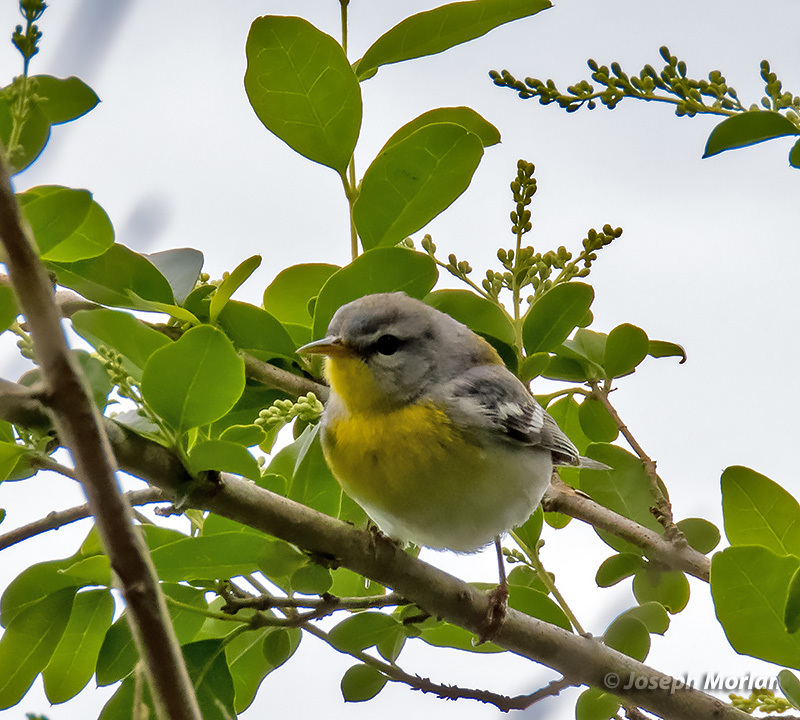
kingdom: Animalia
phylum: Chordata
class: Aves
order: Passeriformes
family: Parulidae
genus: Setophaga
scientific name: Setophaga americana
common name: Northern parula
